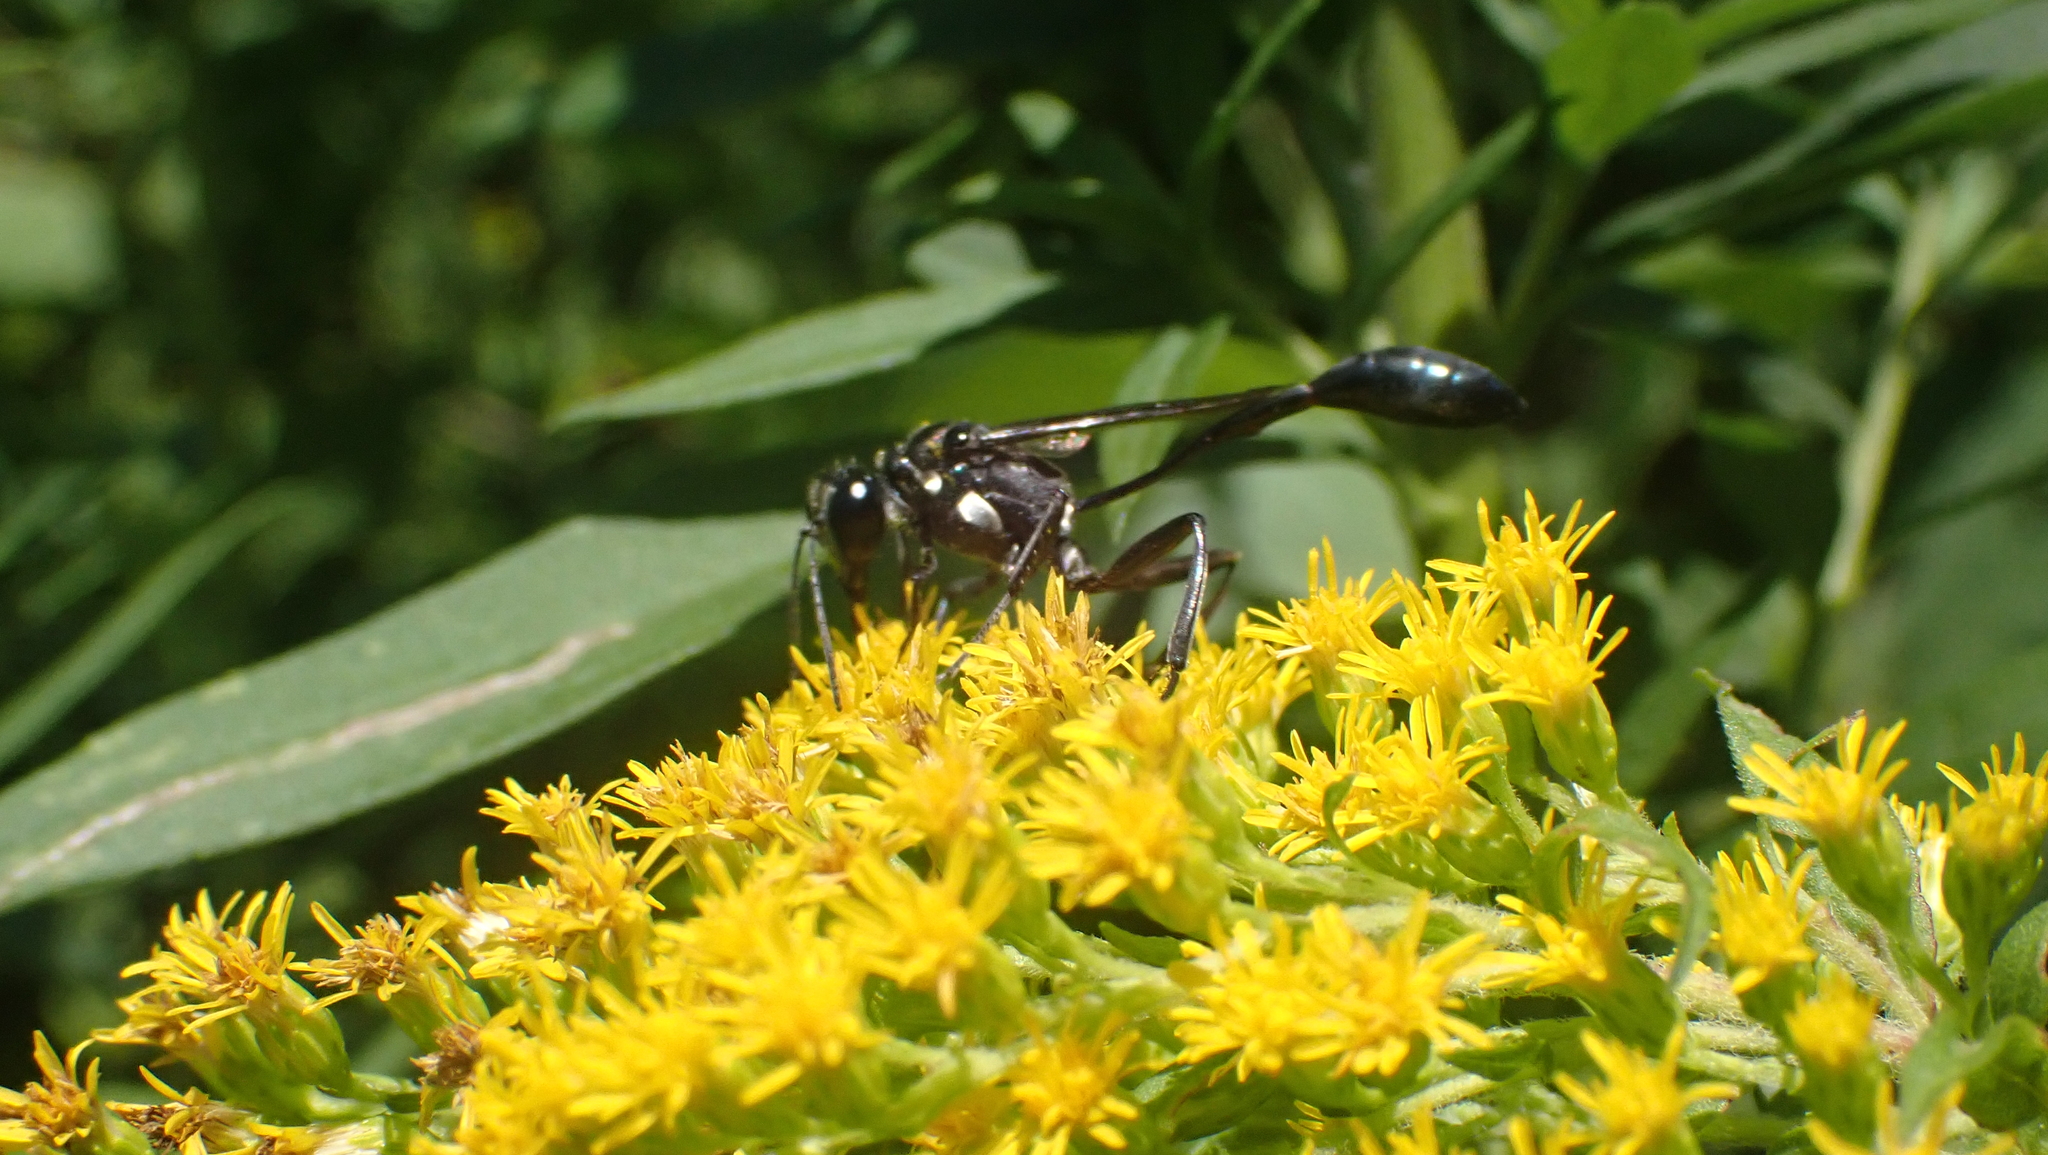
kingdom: Animalia
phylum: Arthropoda
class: Insecta
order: Hymenoptera
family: Sphecidae
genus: Eremnophila
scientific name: Eremnophila aureonotata
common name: Gold-marked thread-waisted wasp
